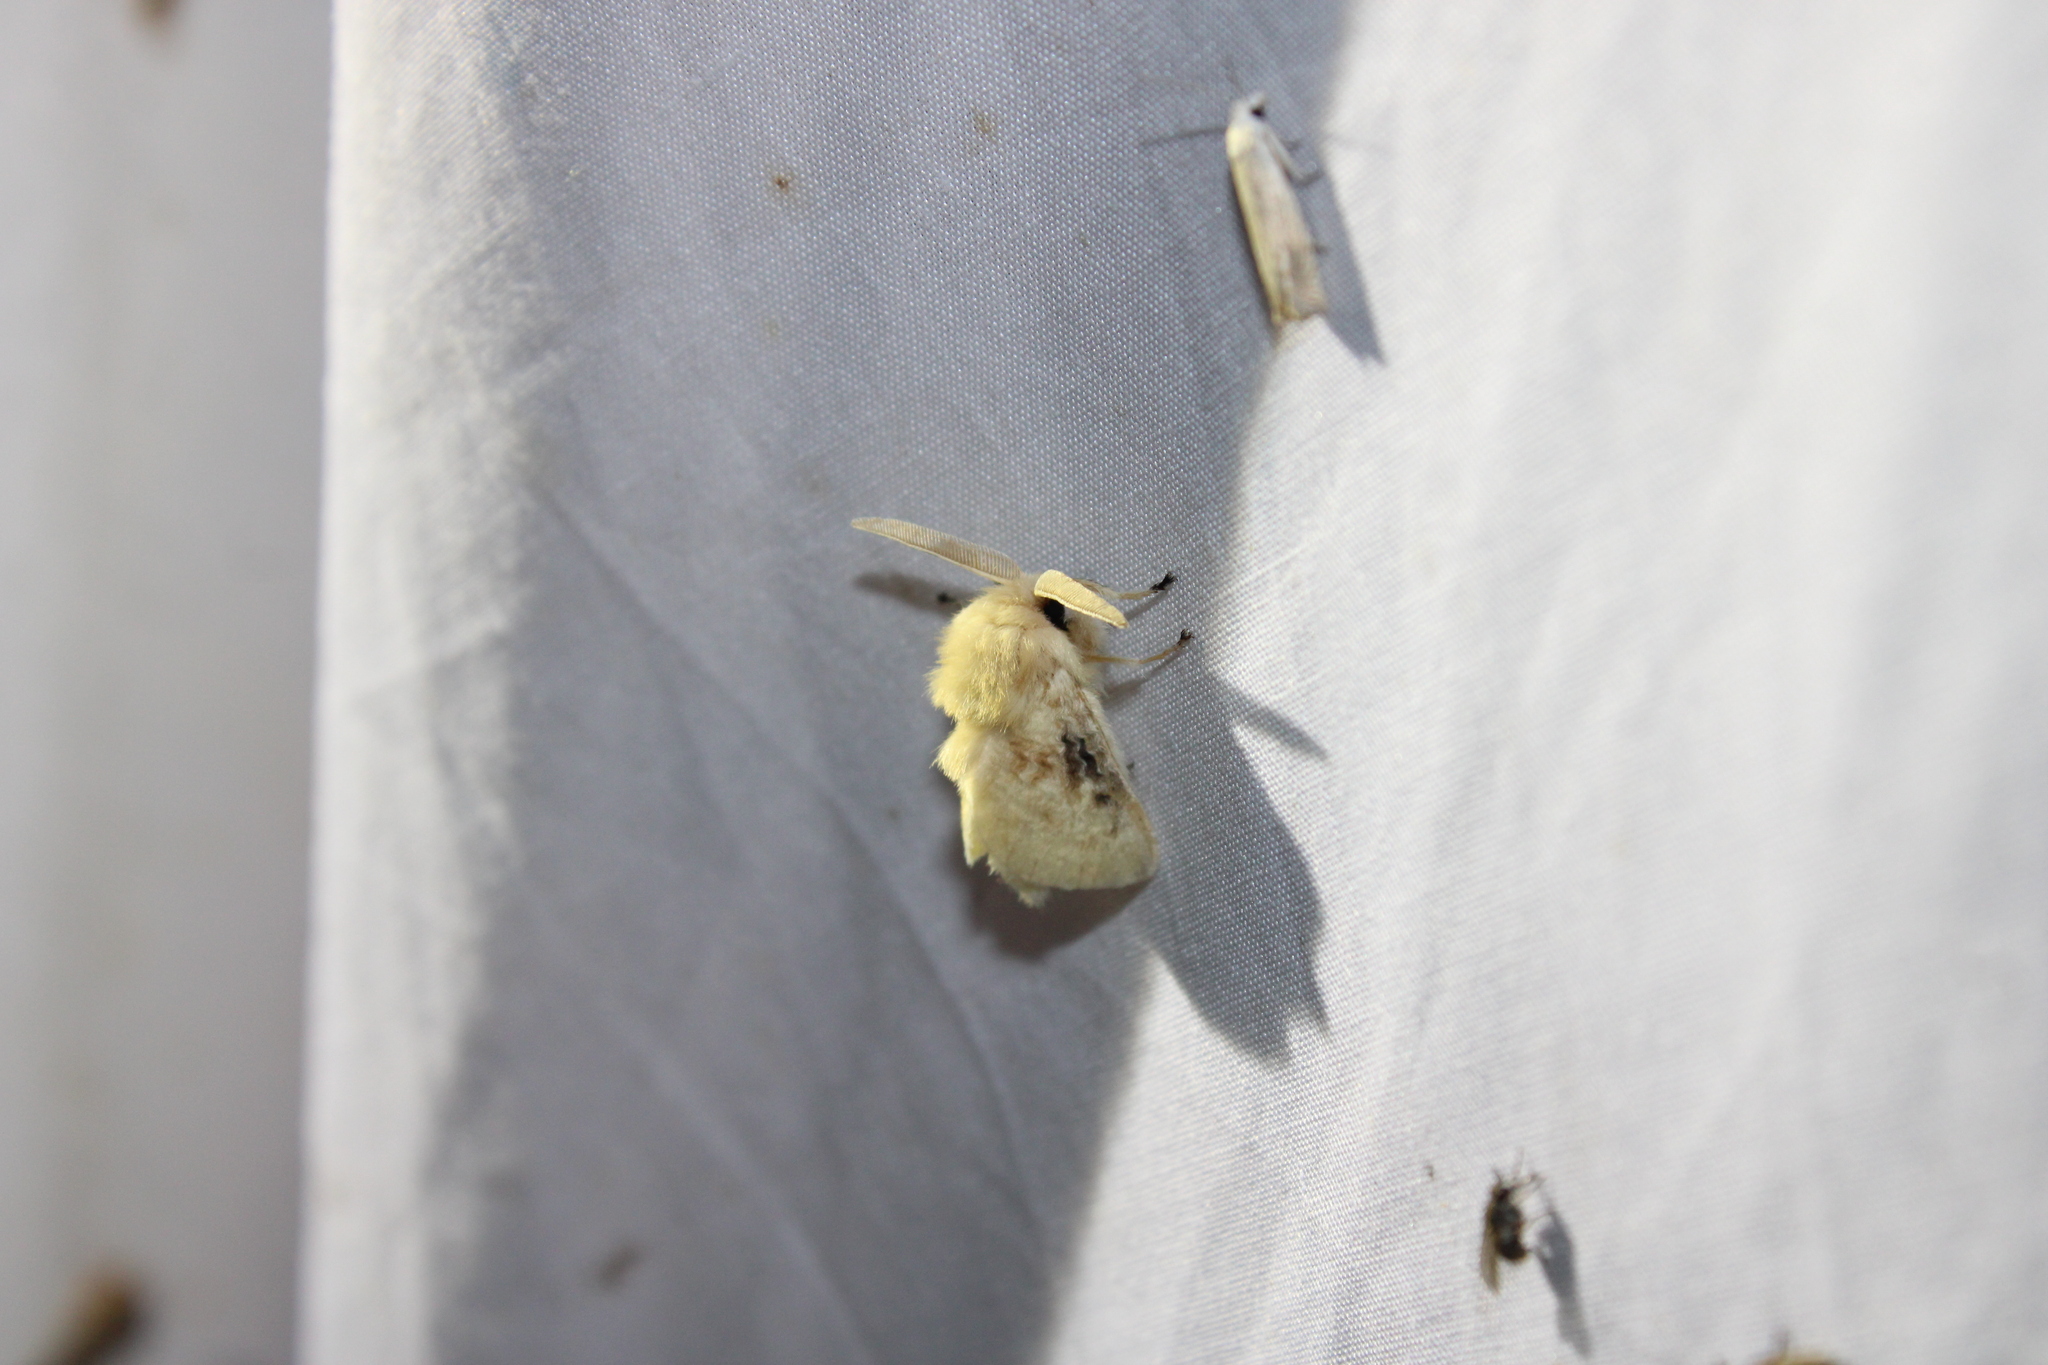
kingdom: Animalia
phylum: Arthropoda
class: Insecta
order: Lepidoptera
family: Megalopygidae
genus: Megalopyge
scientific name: Megalopyge crispata
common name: Black-waved flannel moth
